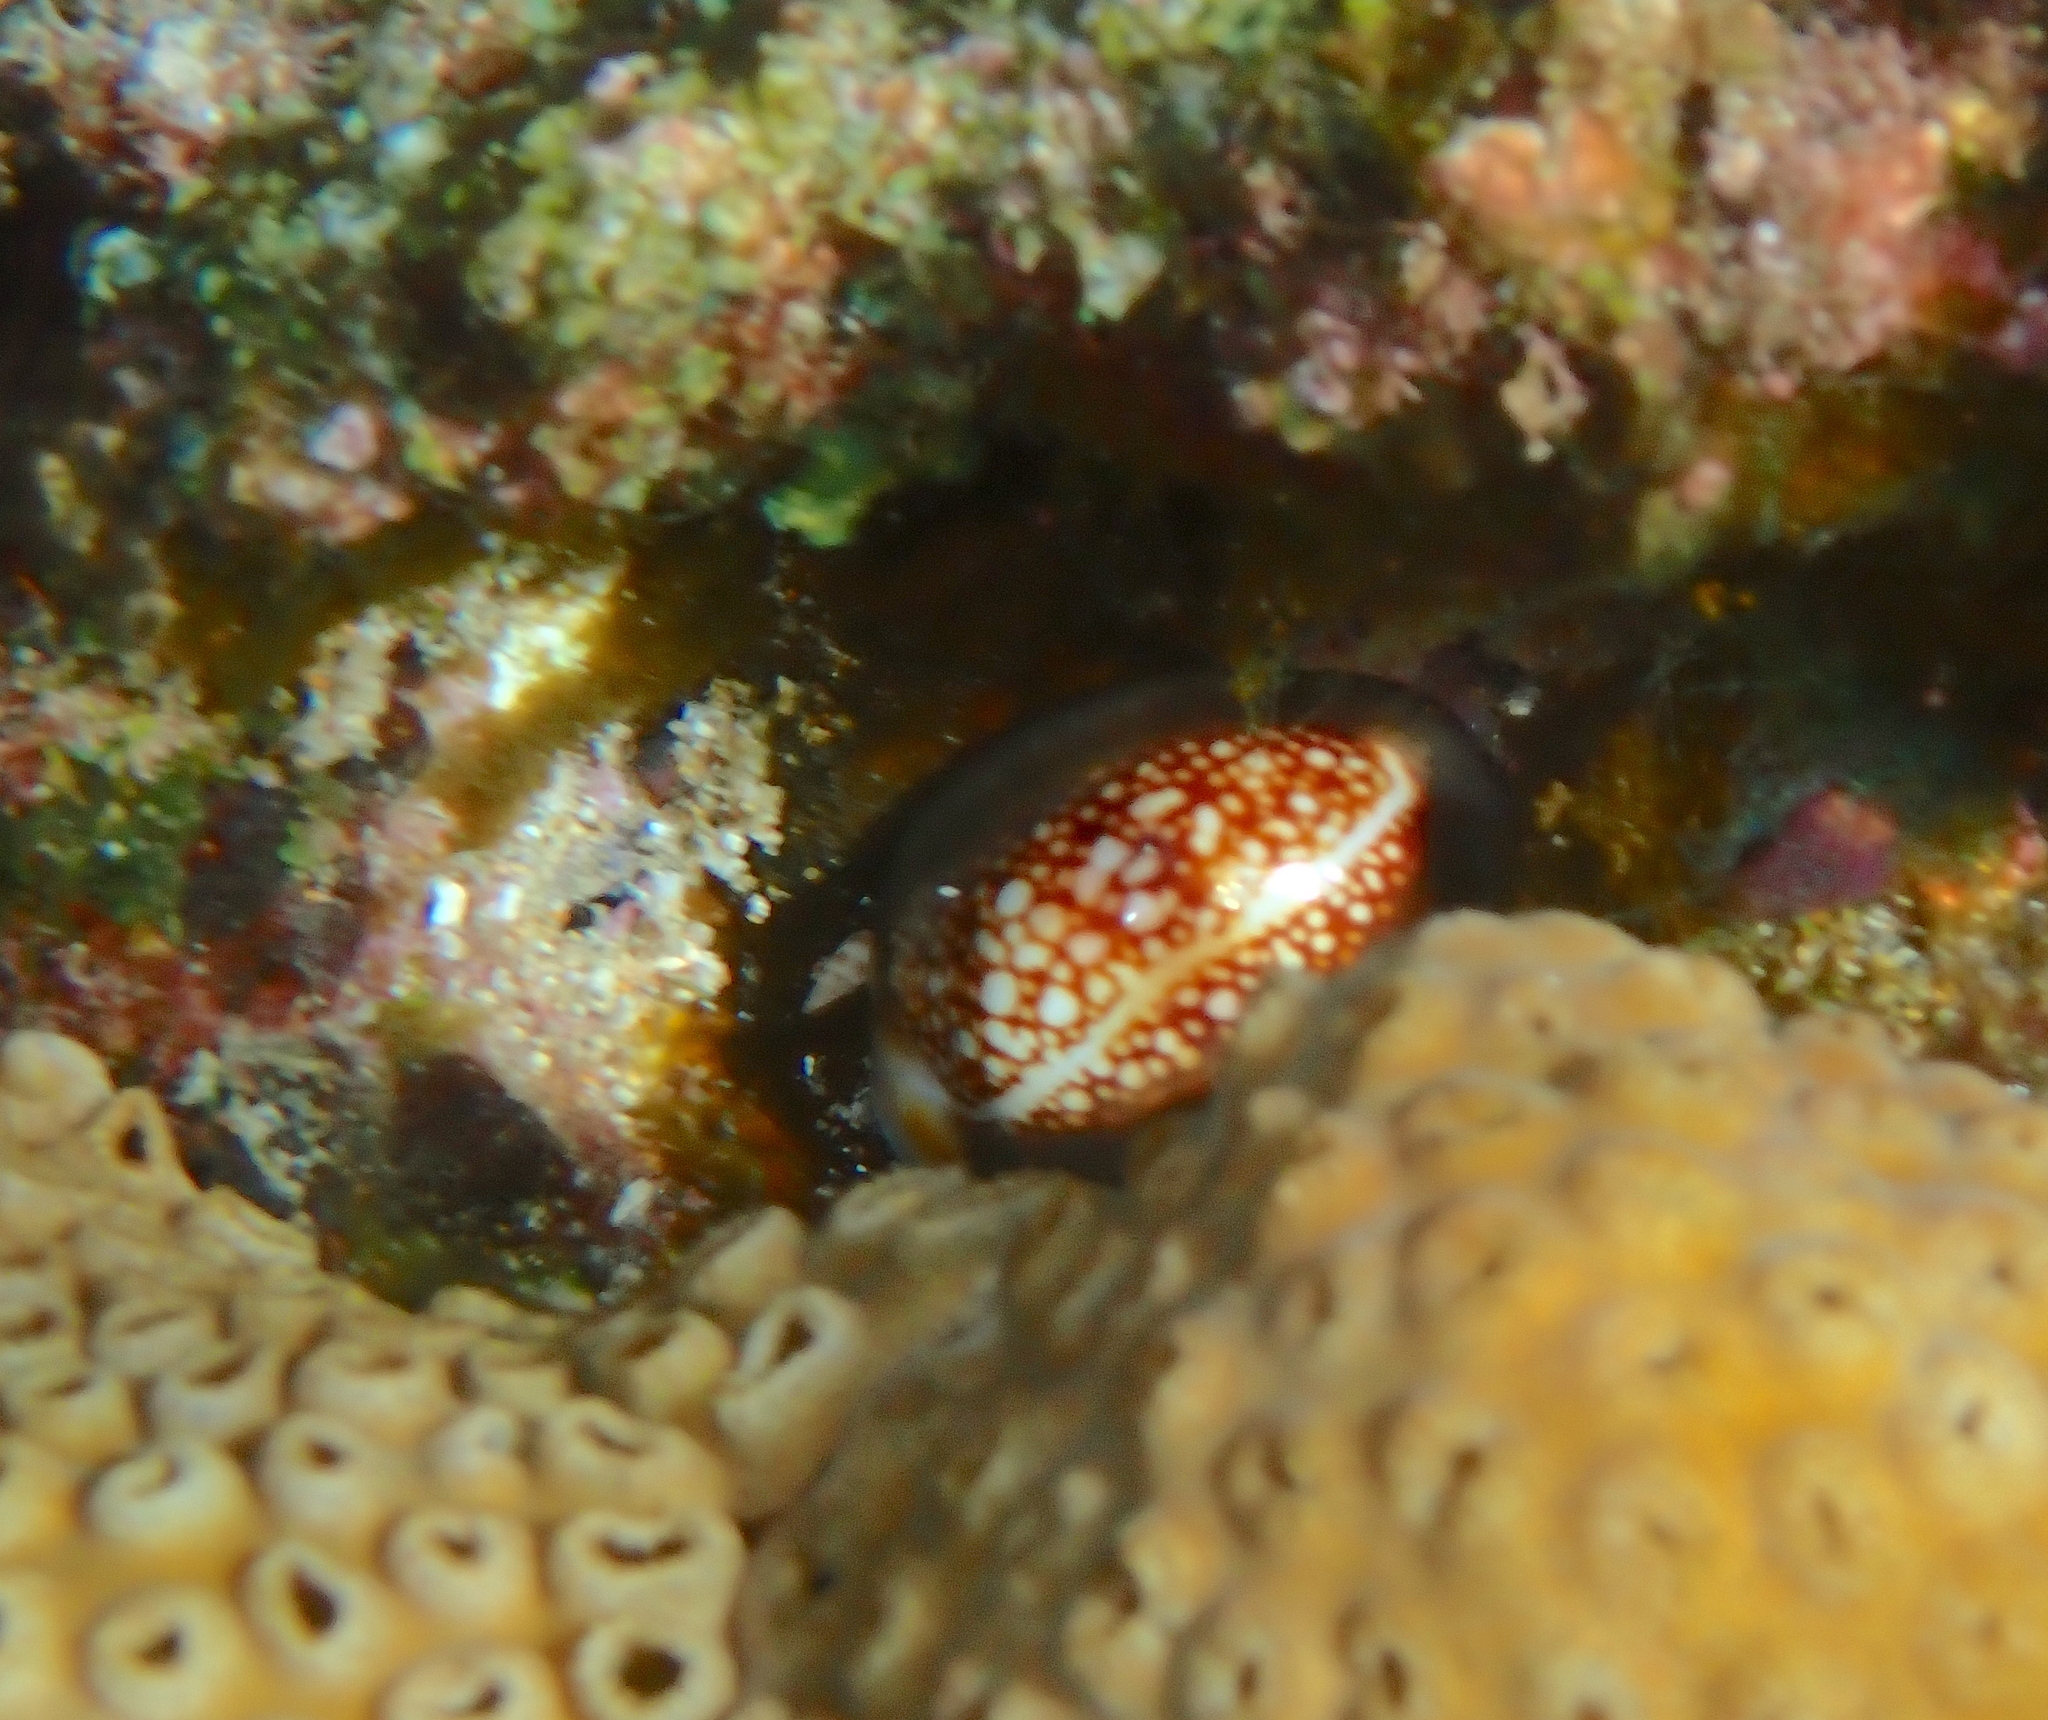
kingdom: Animalia
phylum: Mollusca
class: Gastropoda
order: Littorinimorpha
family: Cypraeidae
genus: Monetaria
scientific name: Monetaria caputophidii
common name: Snake's head cowry
